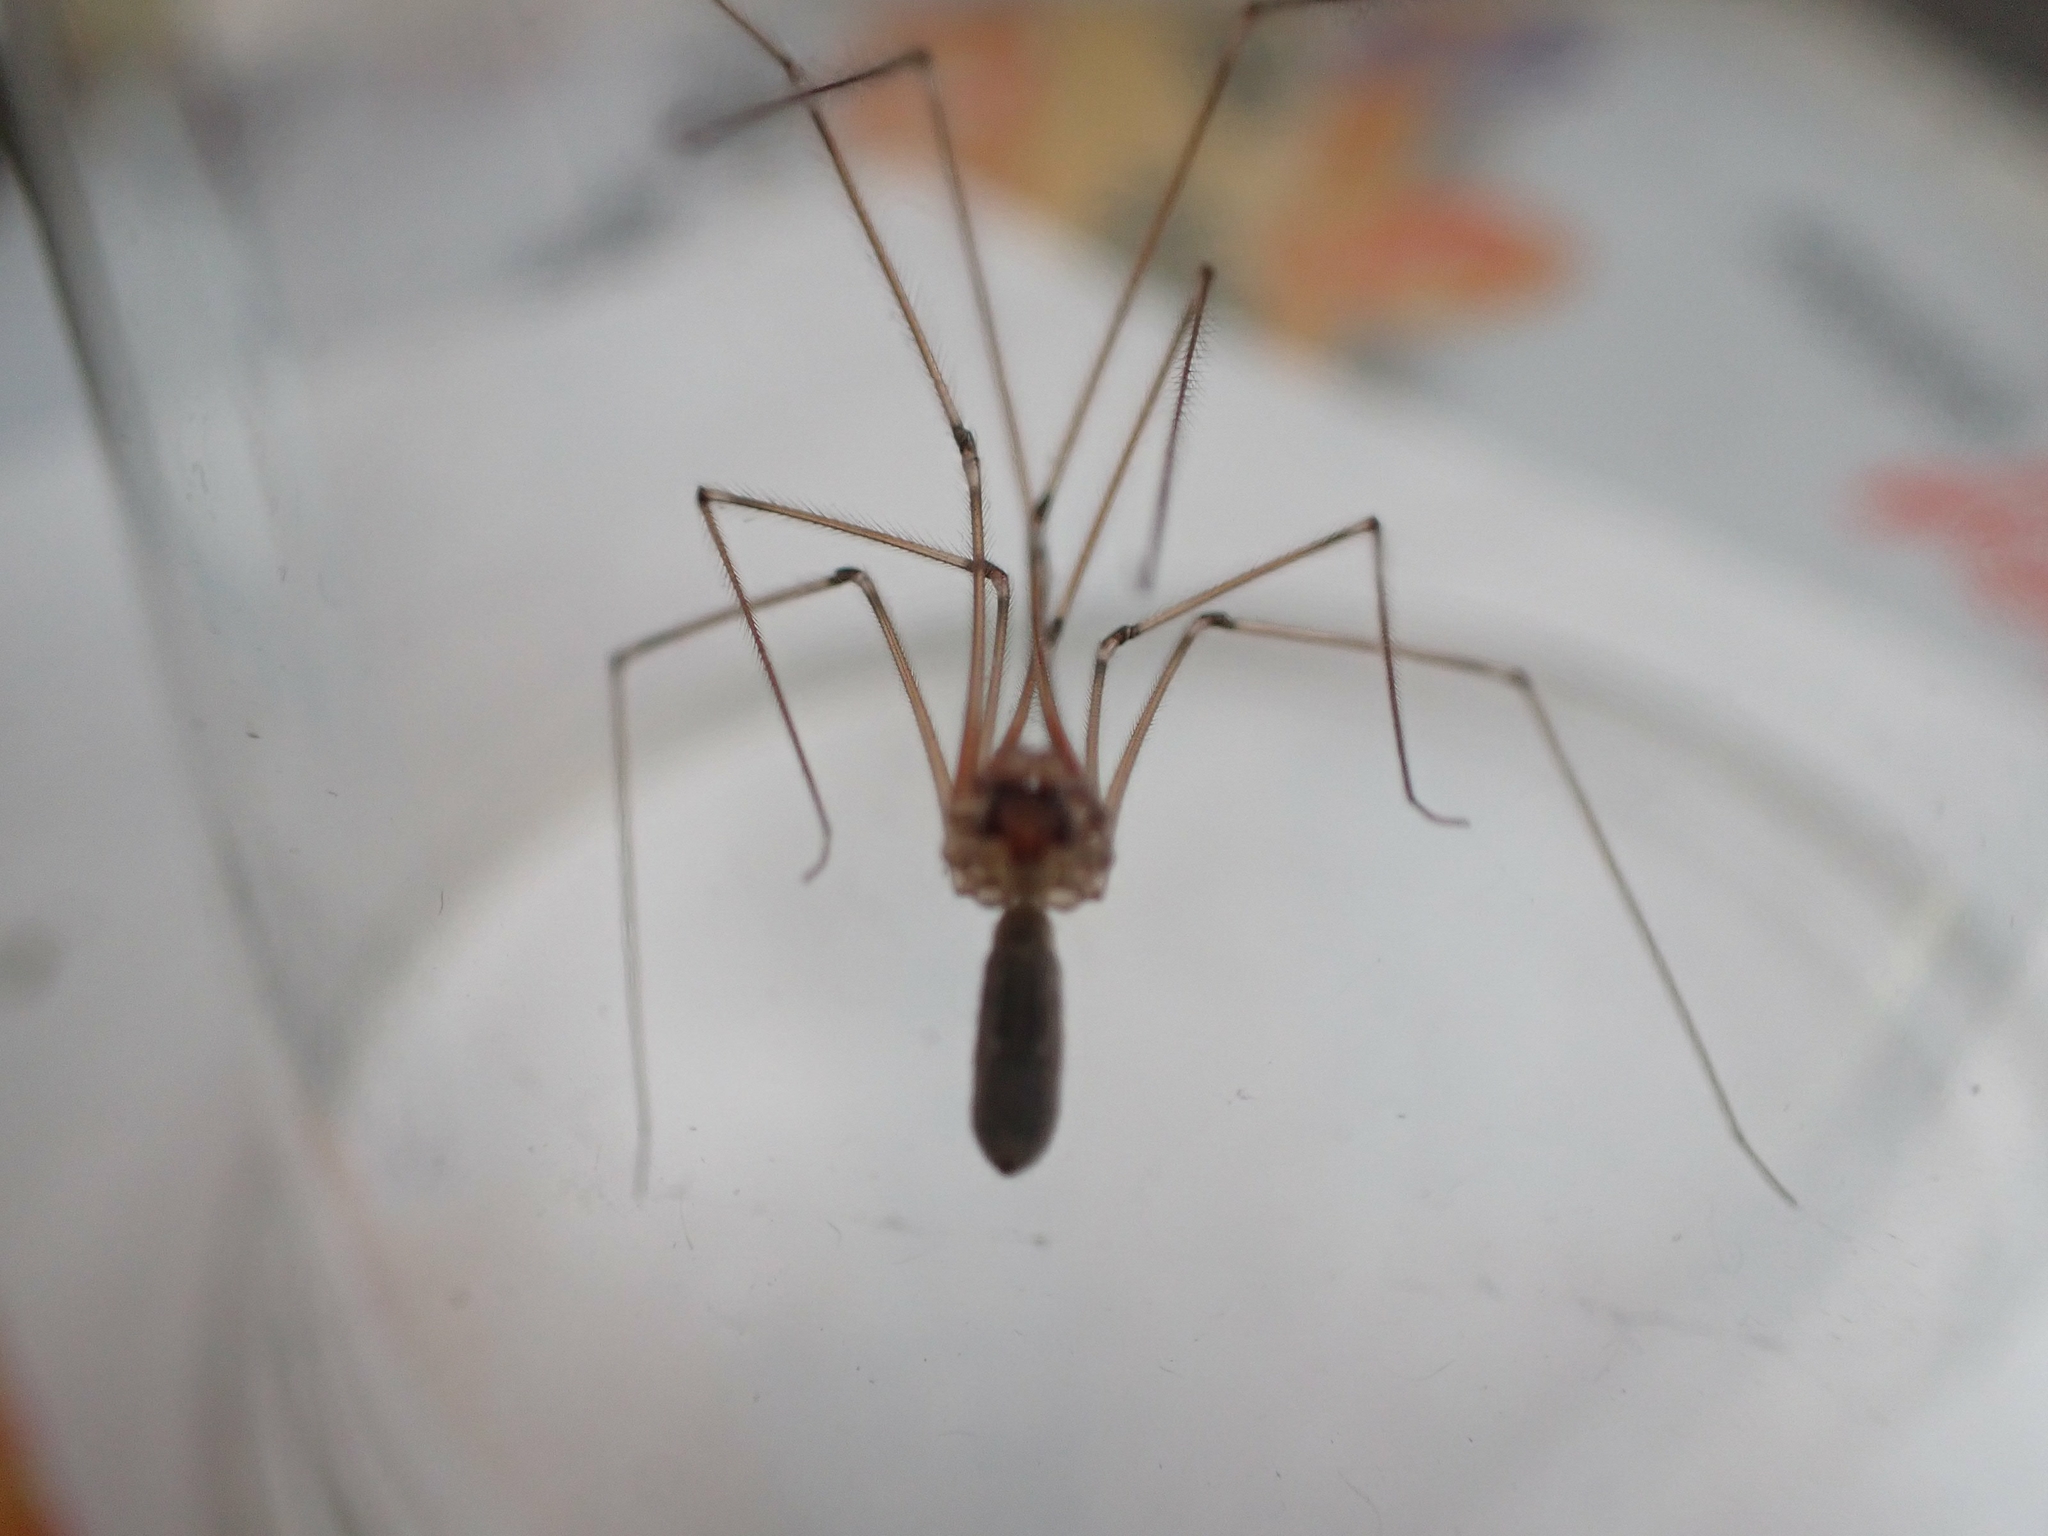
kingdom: Animalia
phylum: Arthropoda
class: Arachnida
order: Araneae
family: Pholcidae
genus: Pholcus
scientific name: Pholcus phalangioides
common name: Longbodied cellar spider
